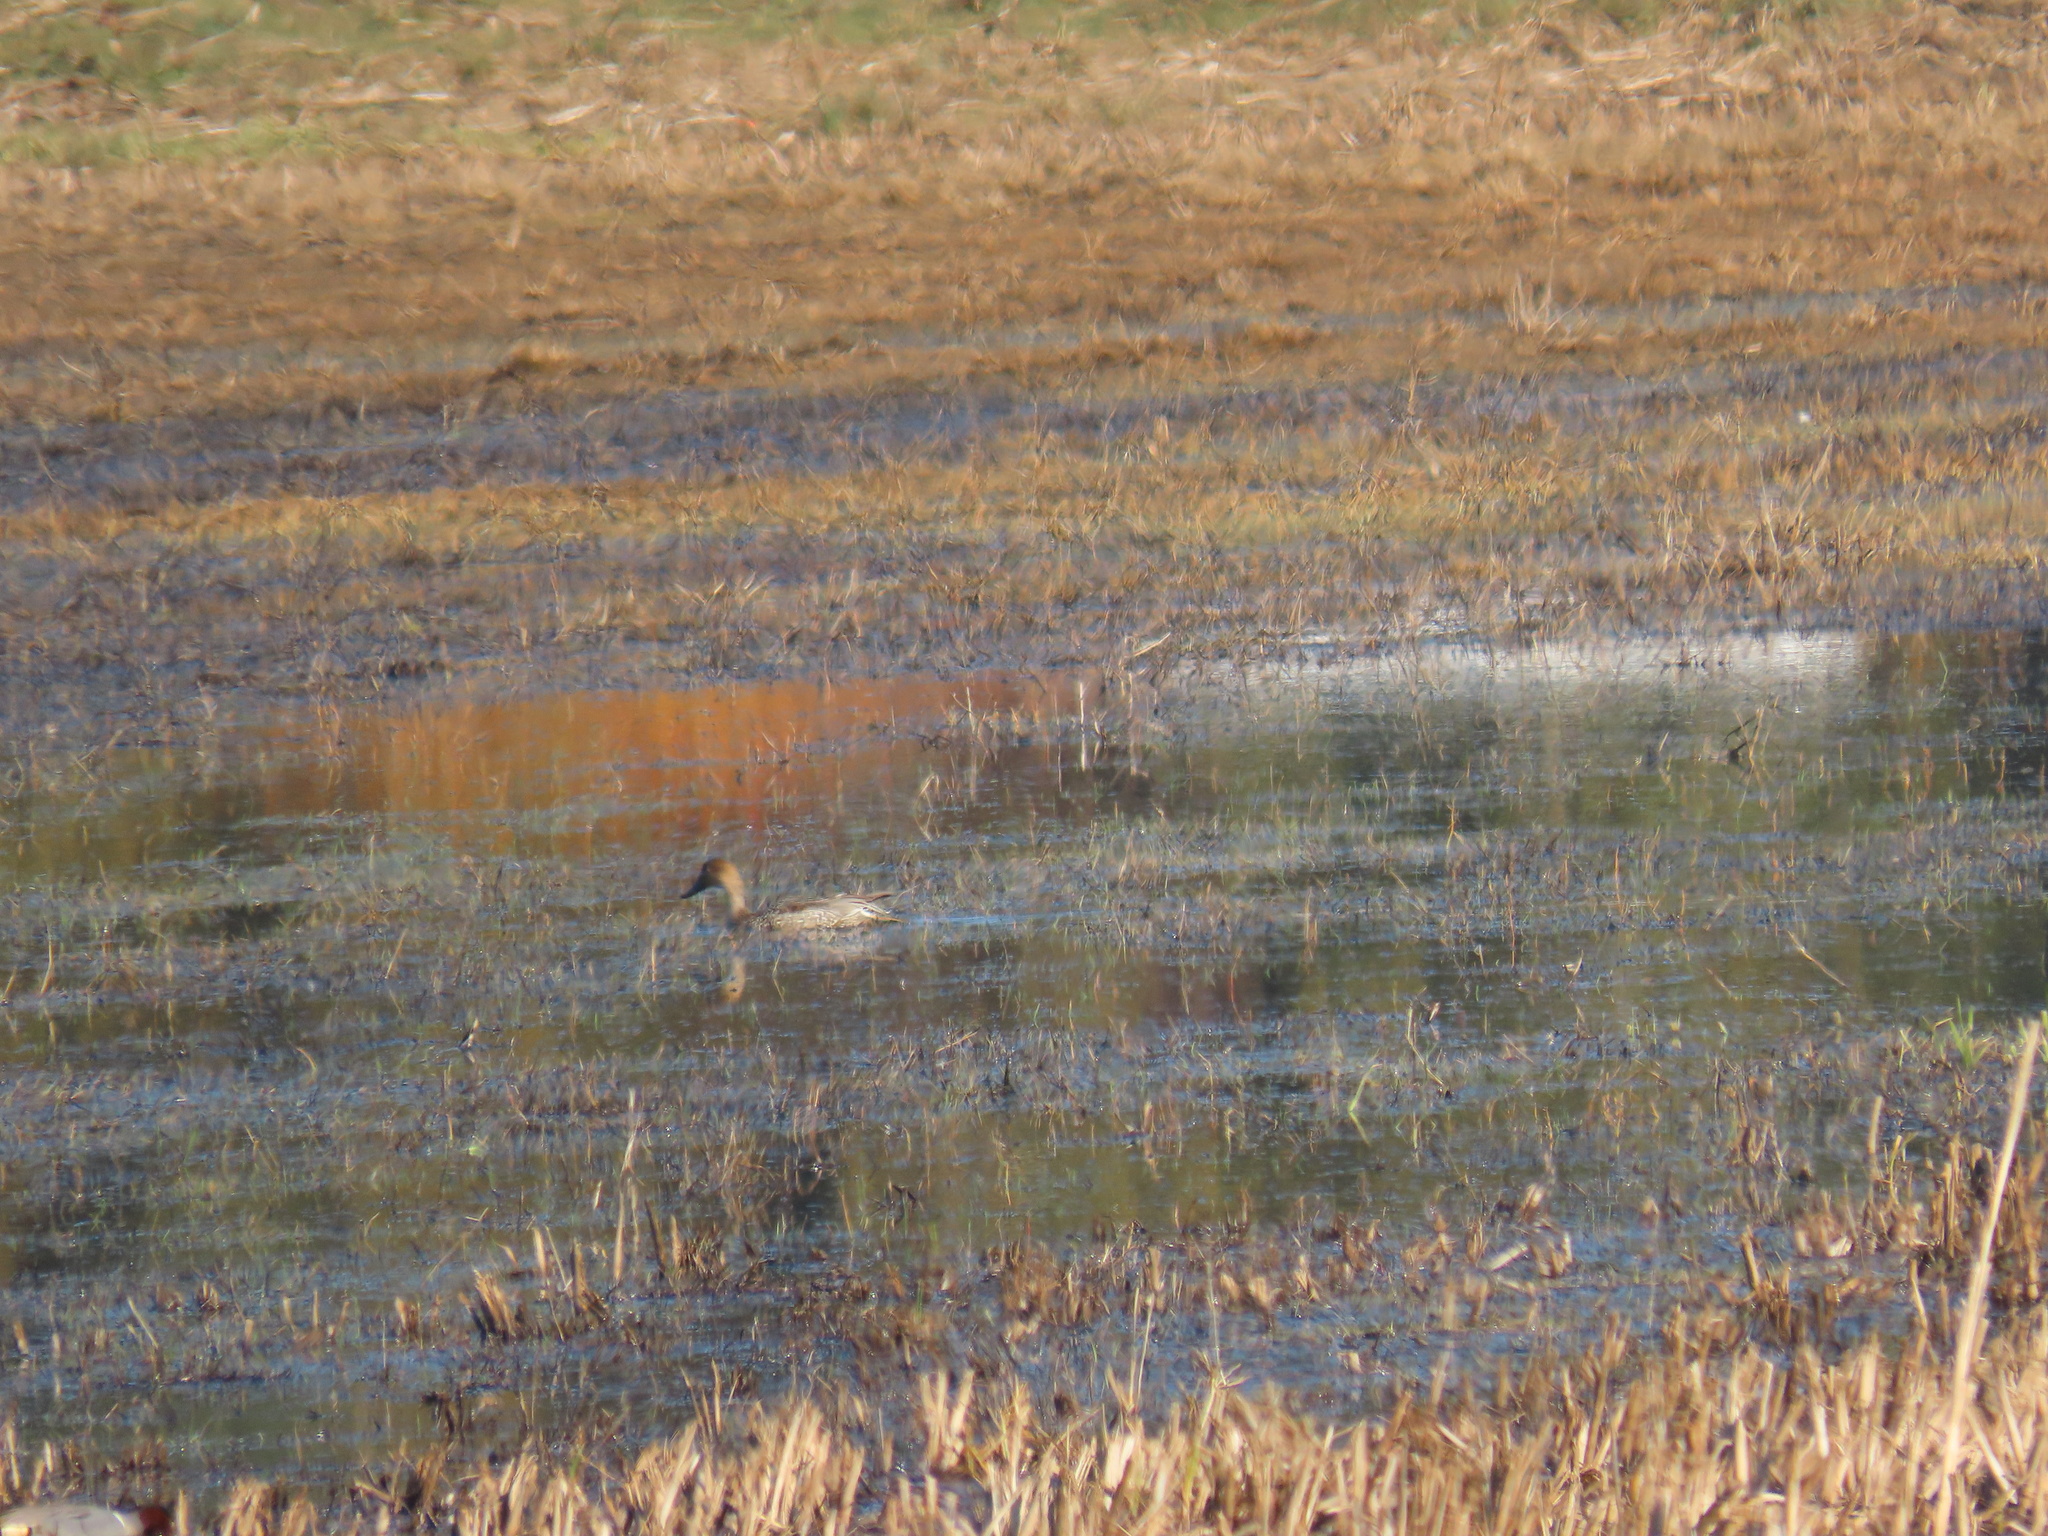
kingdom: Animalia
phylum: Chordata
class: Aves
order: Anseriformes
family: Anatidae
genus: Anas
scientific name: Anas acuta
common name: Northern pintail
